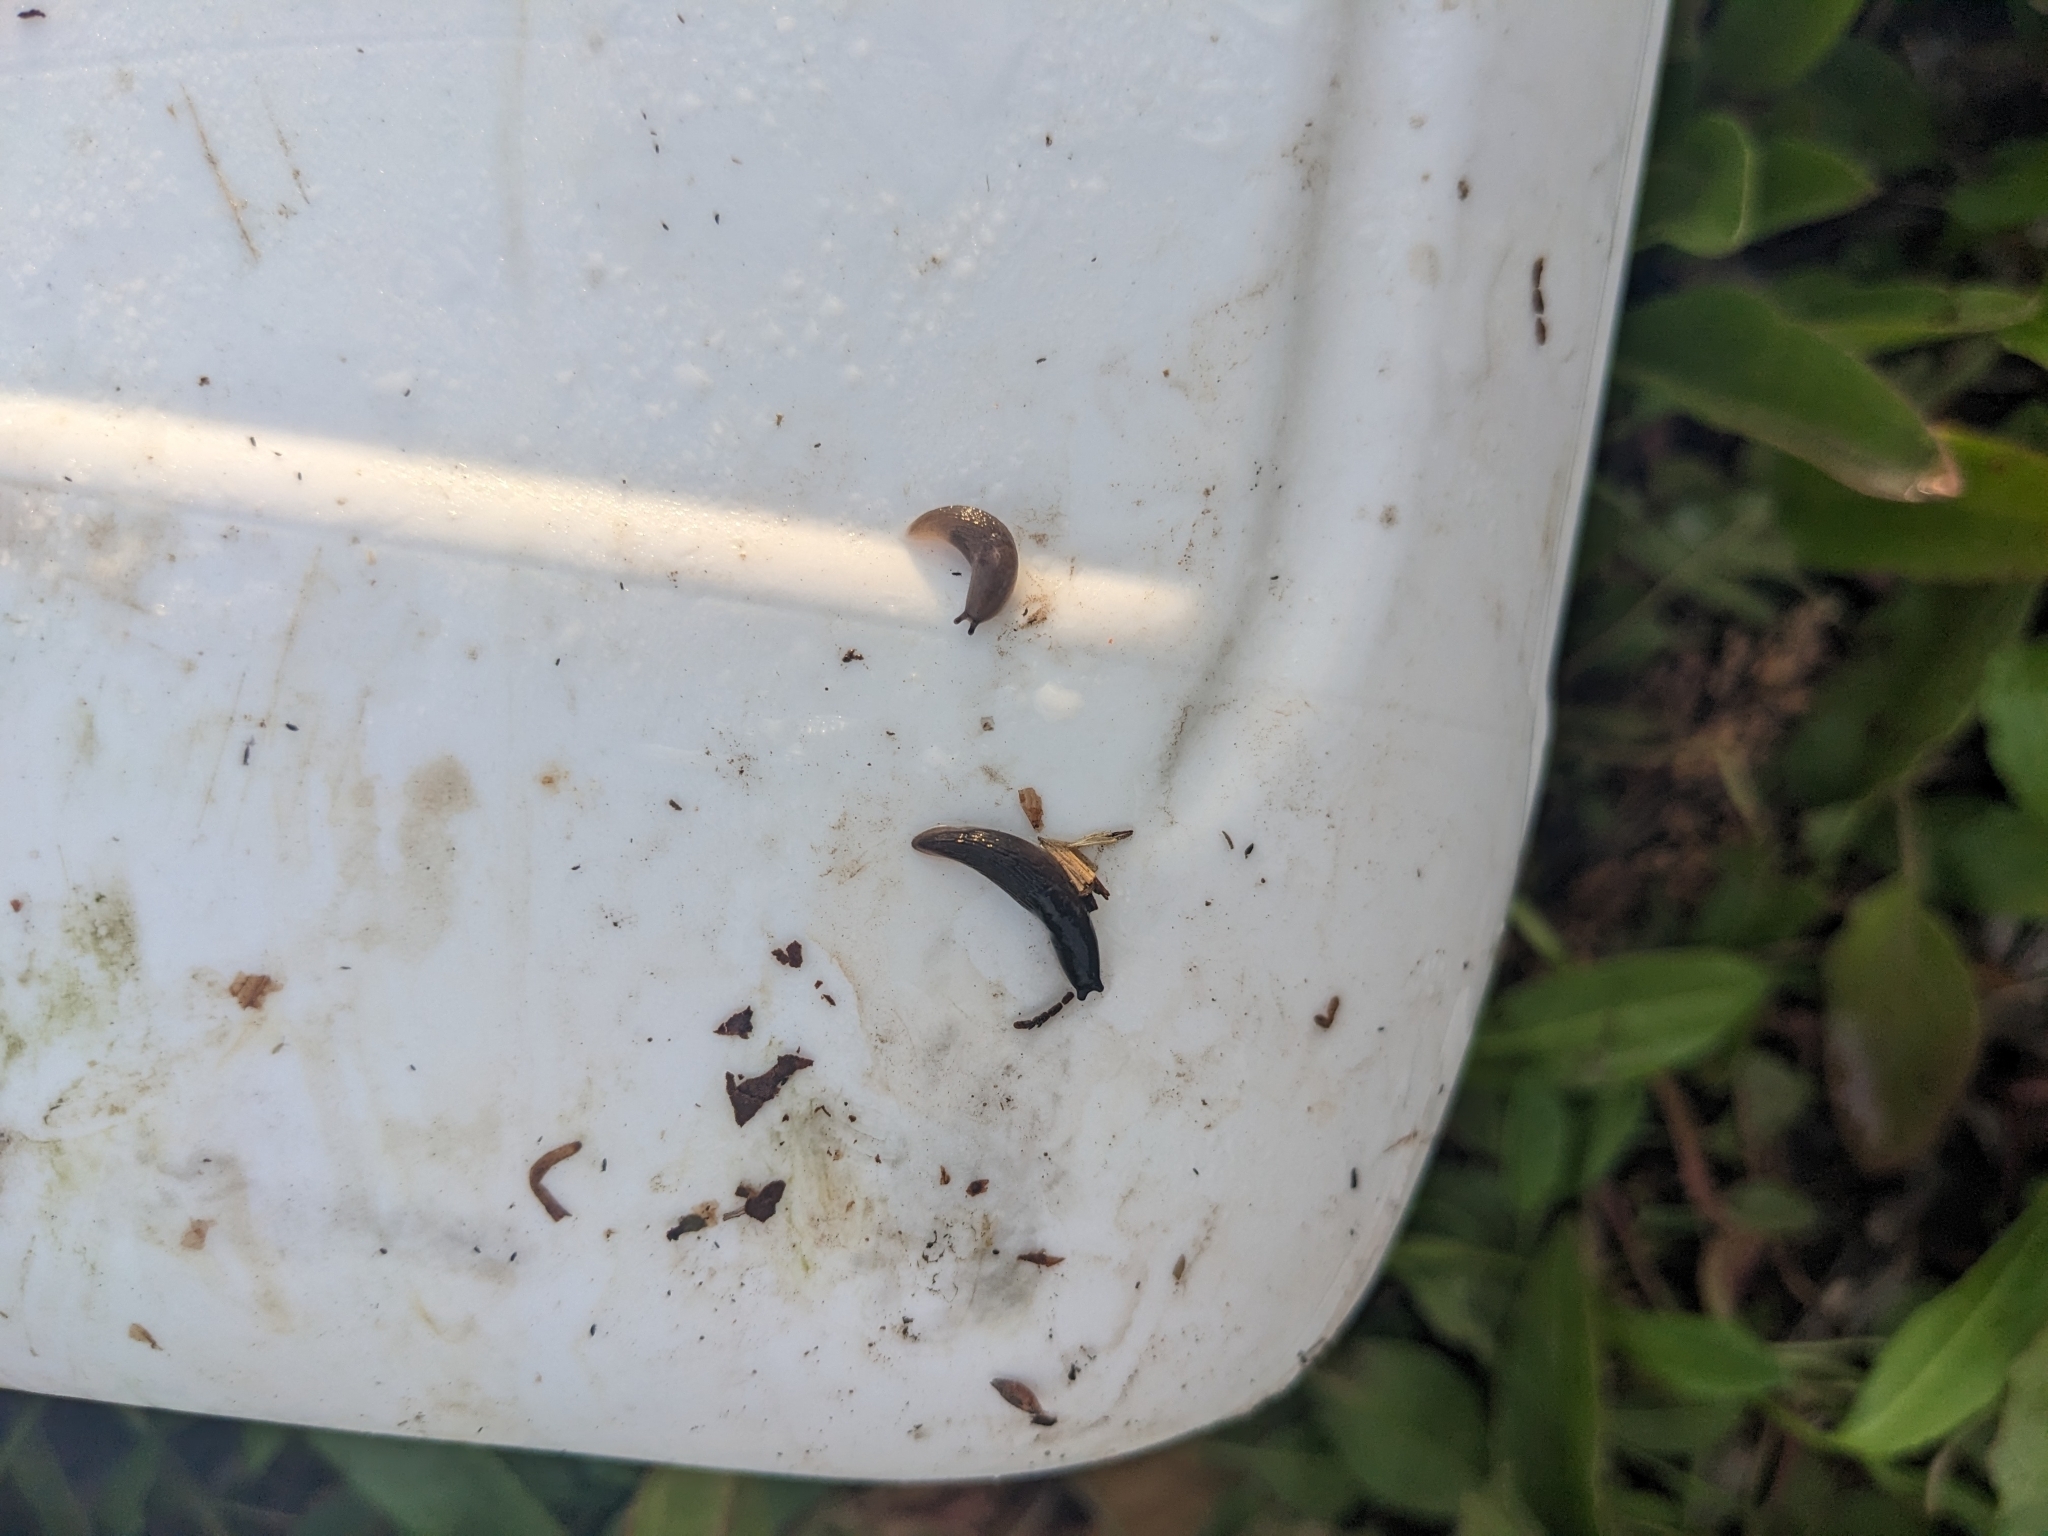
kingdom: Animalia
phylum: Mollusca
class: Gastropoda
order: Stylommatophora
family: Agriolimacidae
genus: Deroceras
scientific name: Deroceras laeve
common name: Marsh slug
